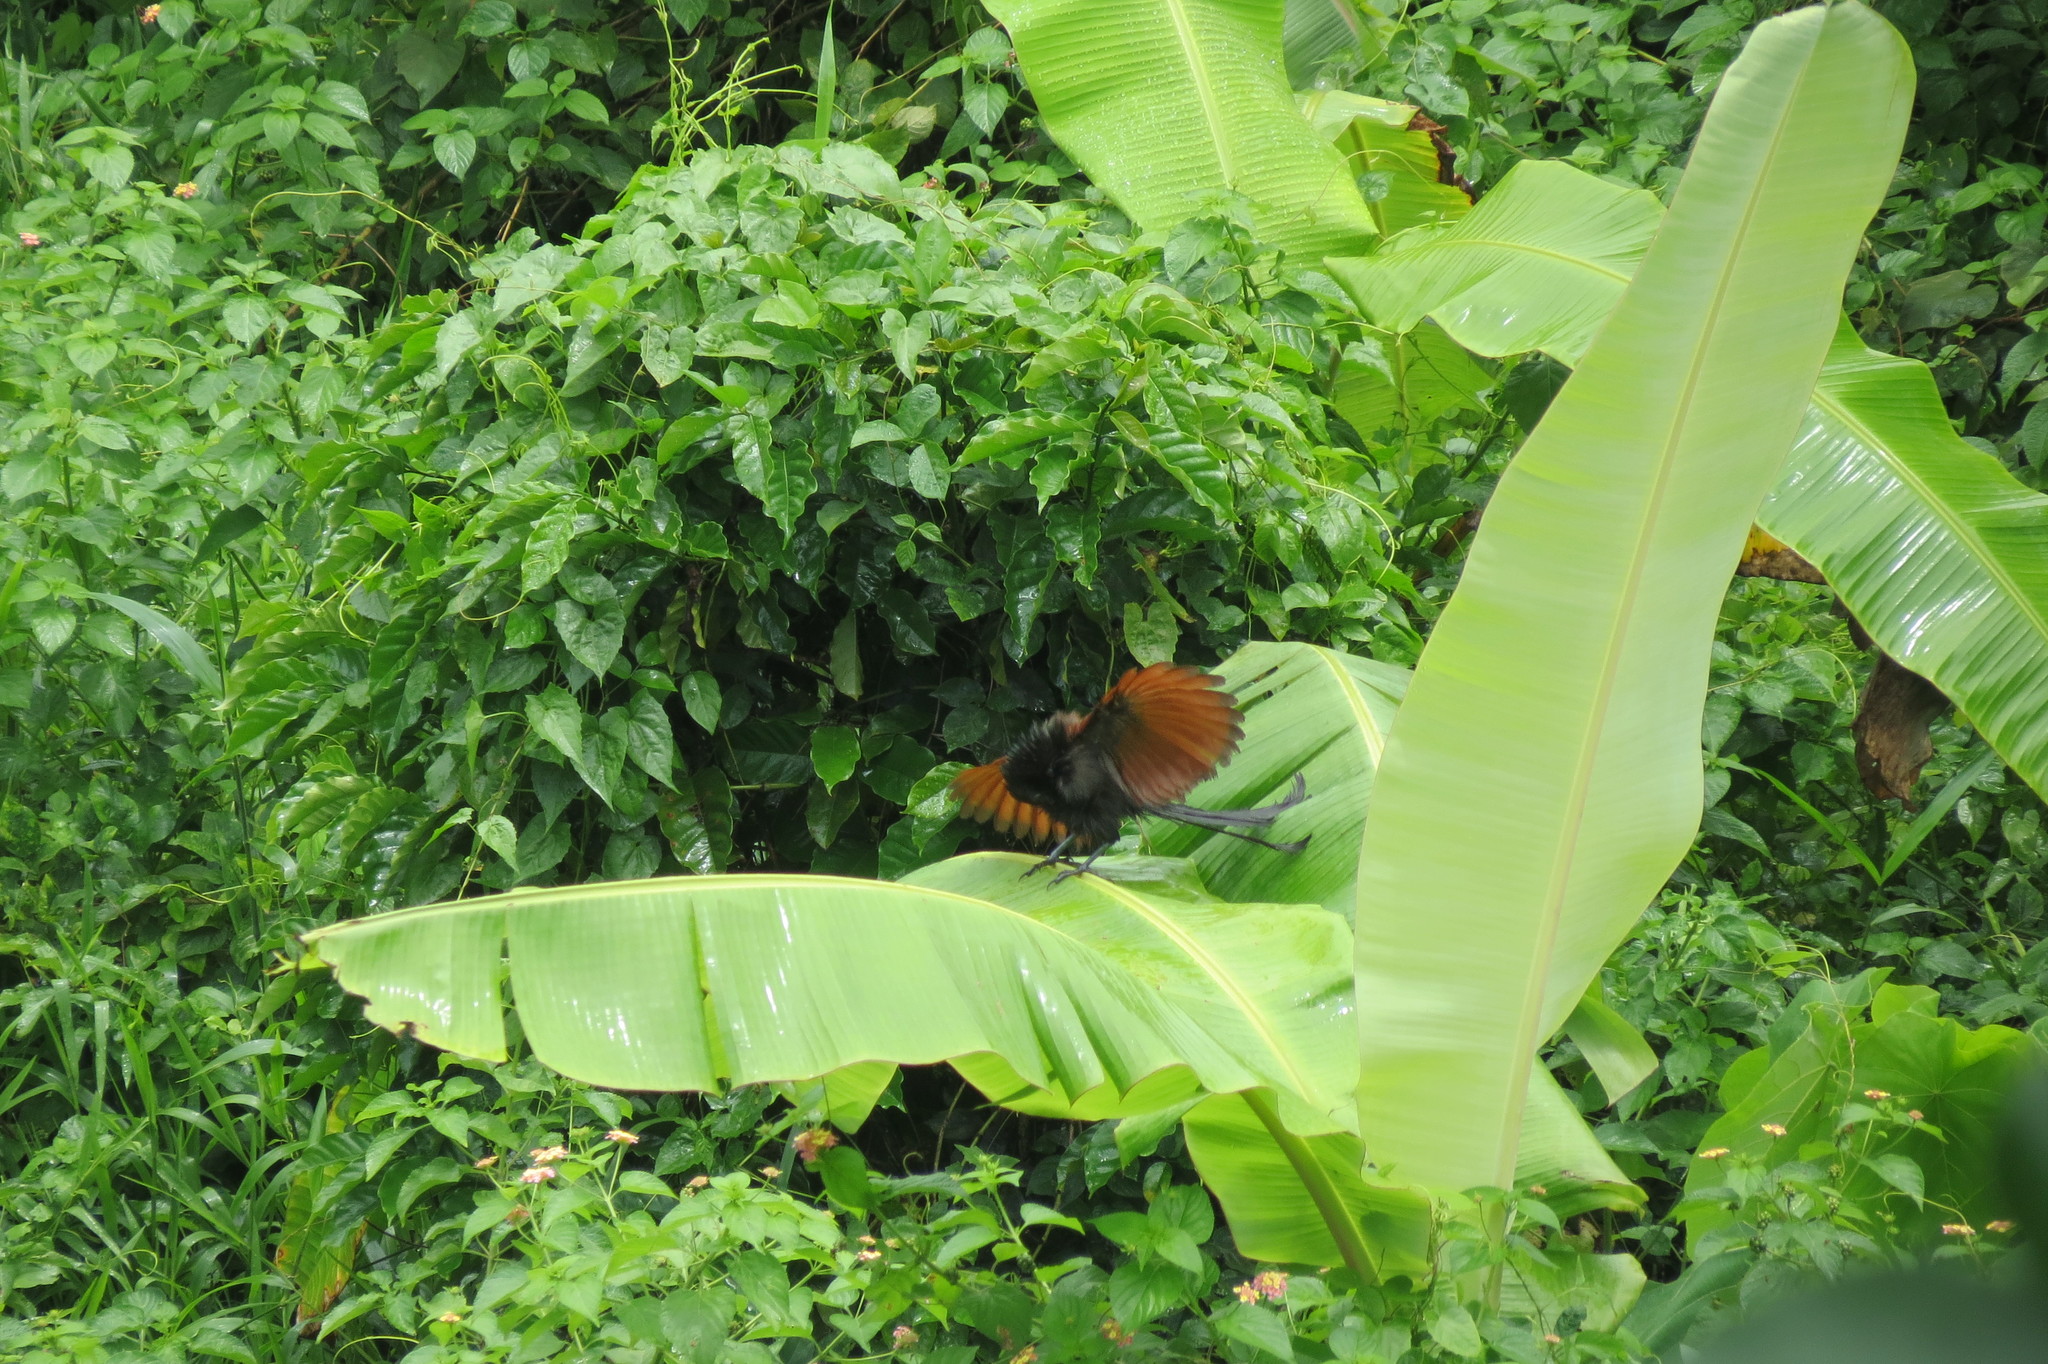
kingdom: Animalia
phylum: Chordata
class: Aves
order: Cuculiformes
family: Cuculidae
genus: Centropus
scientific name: Centropus viridis
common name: Philippine coucal
